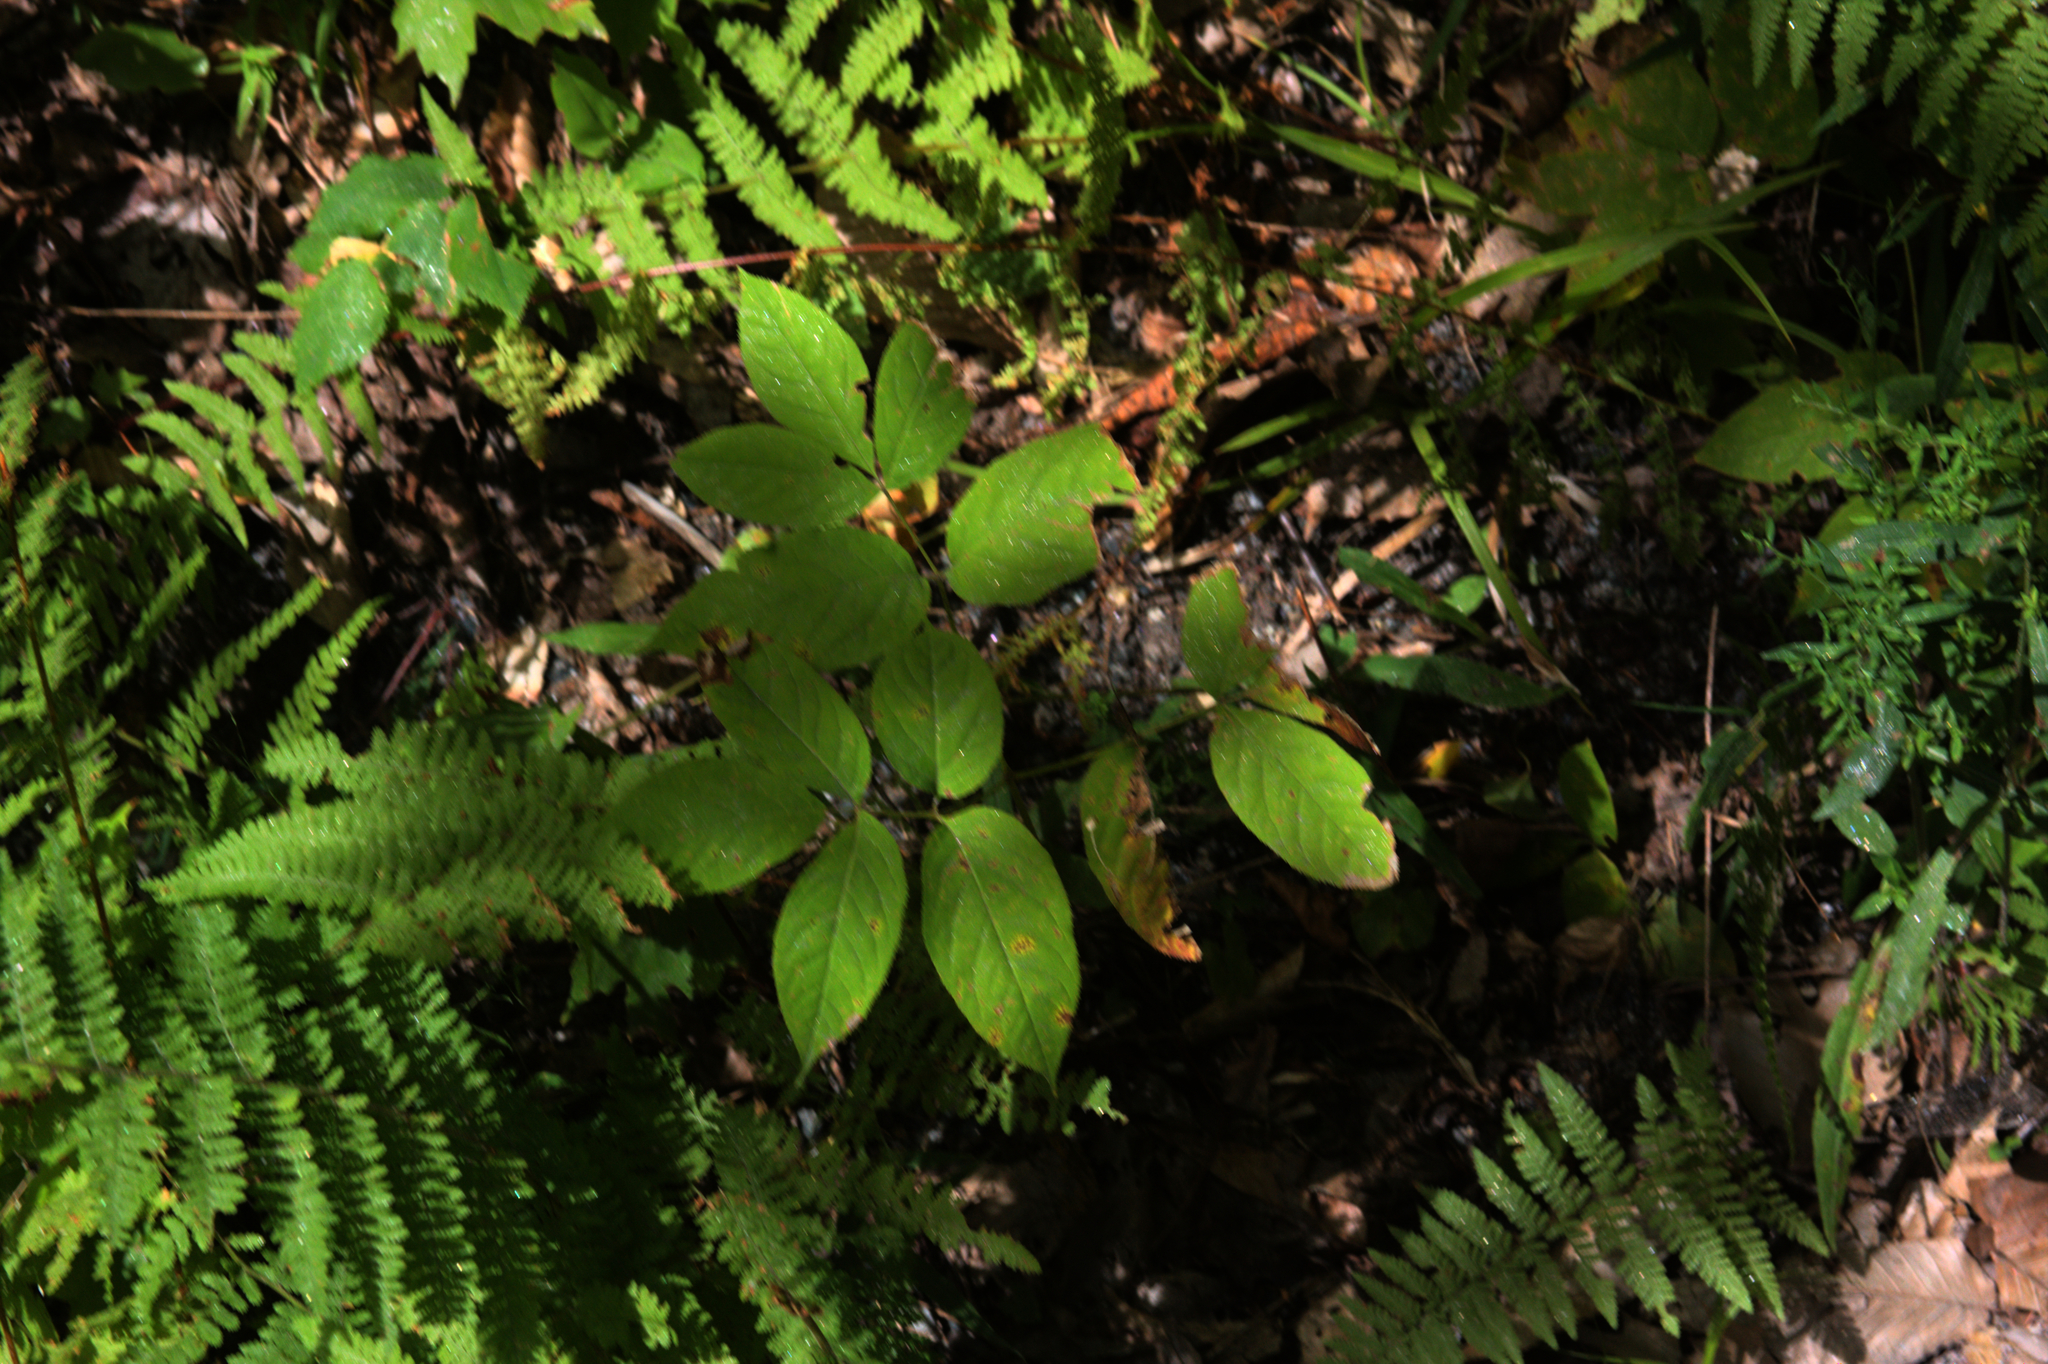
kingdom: Plantae
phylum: Tracheophyta
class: Magnoliopsida
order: Apiales
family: Araliaceae
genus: Aralia
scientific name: Aralia nudicaulis
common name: Wild sarsaparilla
